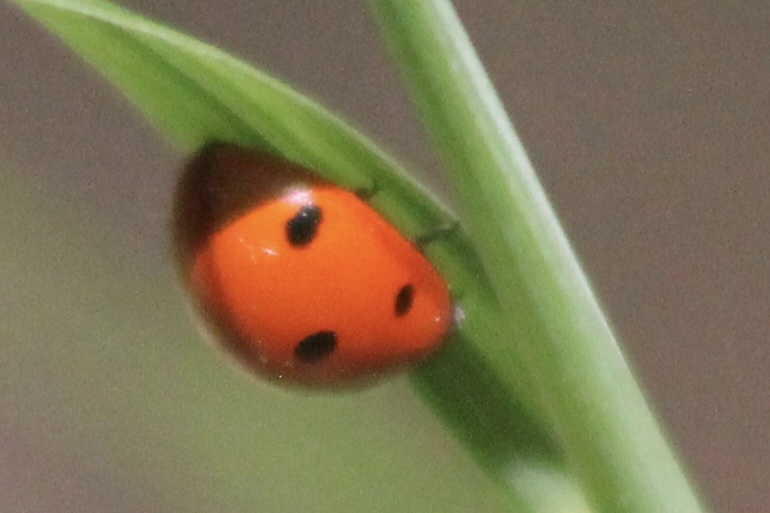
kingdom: Animalia
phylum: Arthropoda
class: Insecta
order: Coleoptera
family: Coccinellidae
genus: Coccinella
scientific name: Coccinella septempunctata
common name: Sevenspotted lady beetle
